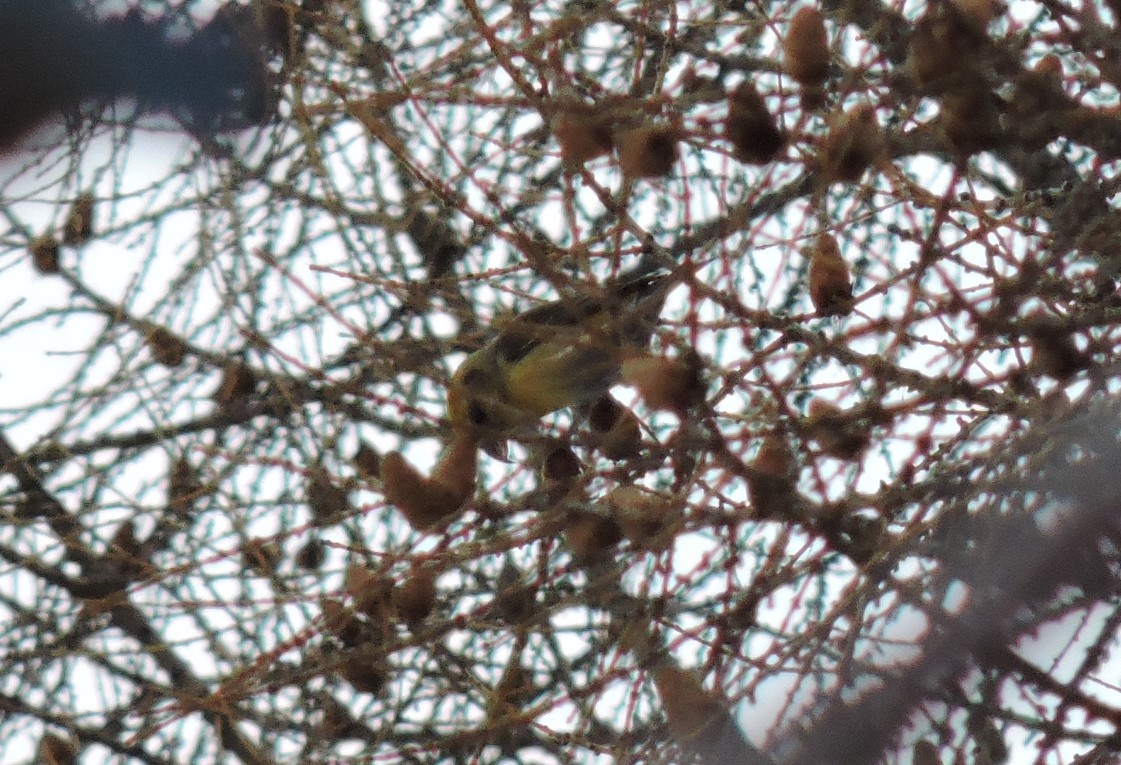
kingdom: Animalia
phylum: Chordata
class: Aves
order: Passeriformes
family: Fringillidae
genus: Loxia
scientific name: Loxia curvirostra
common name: Red crossbill
